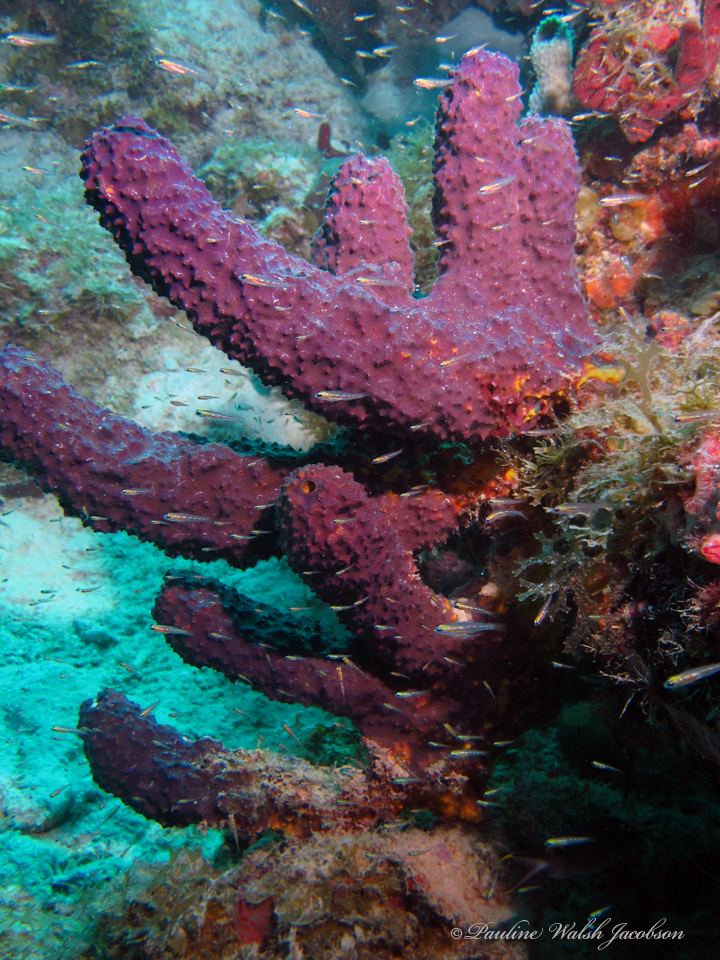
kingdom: Animalia
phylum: Porifera
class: Demospongiae
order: Verongiida
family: Aplysinidae
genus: Aiolochroia
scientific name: Aiolochroia crassa
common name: Branching tube sponge
